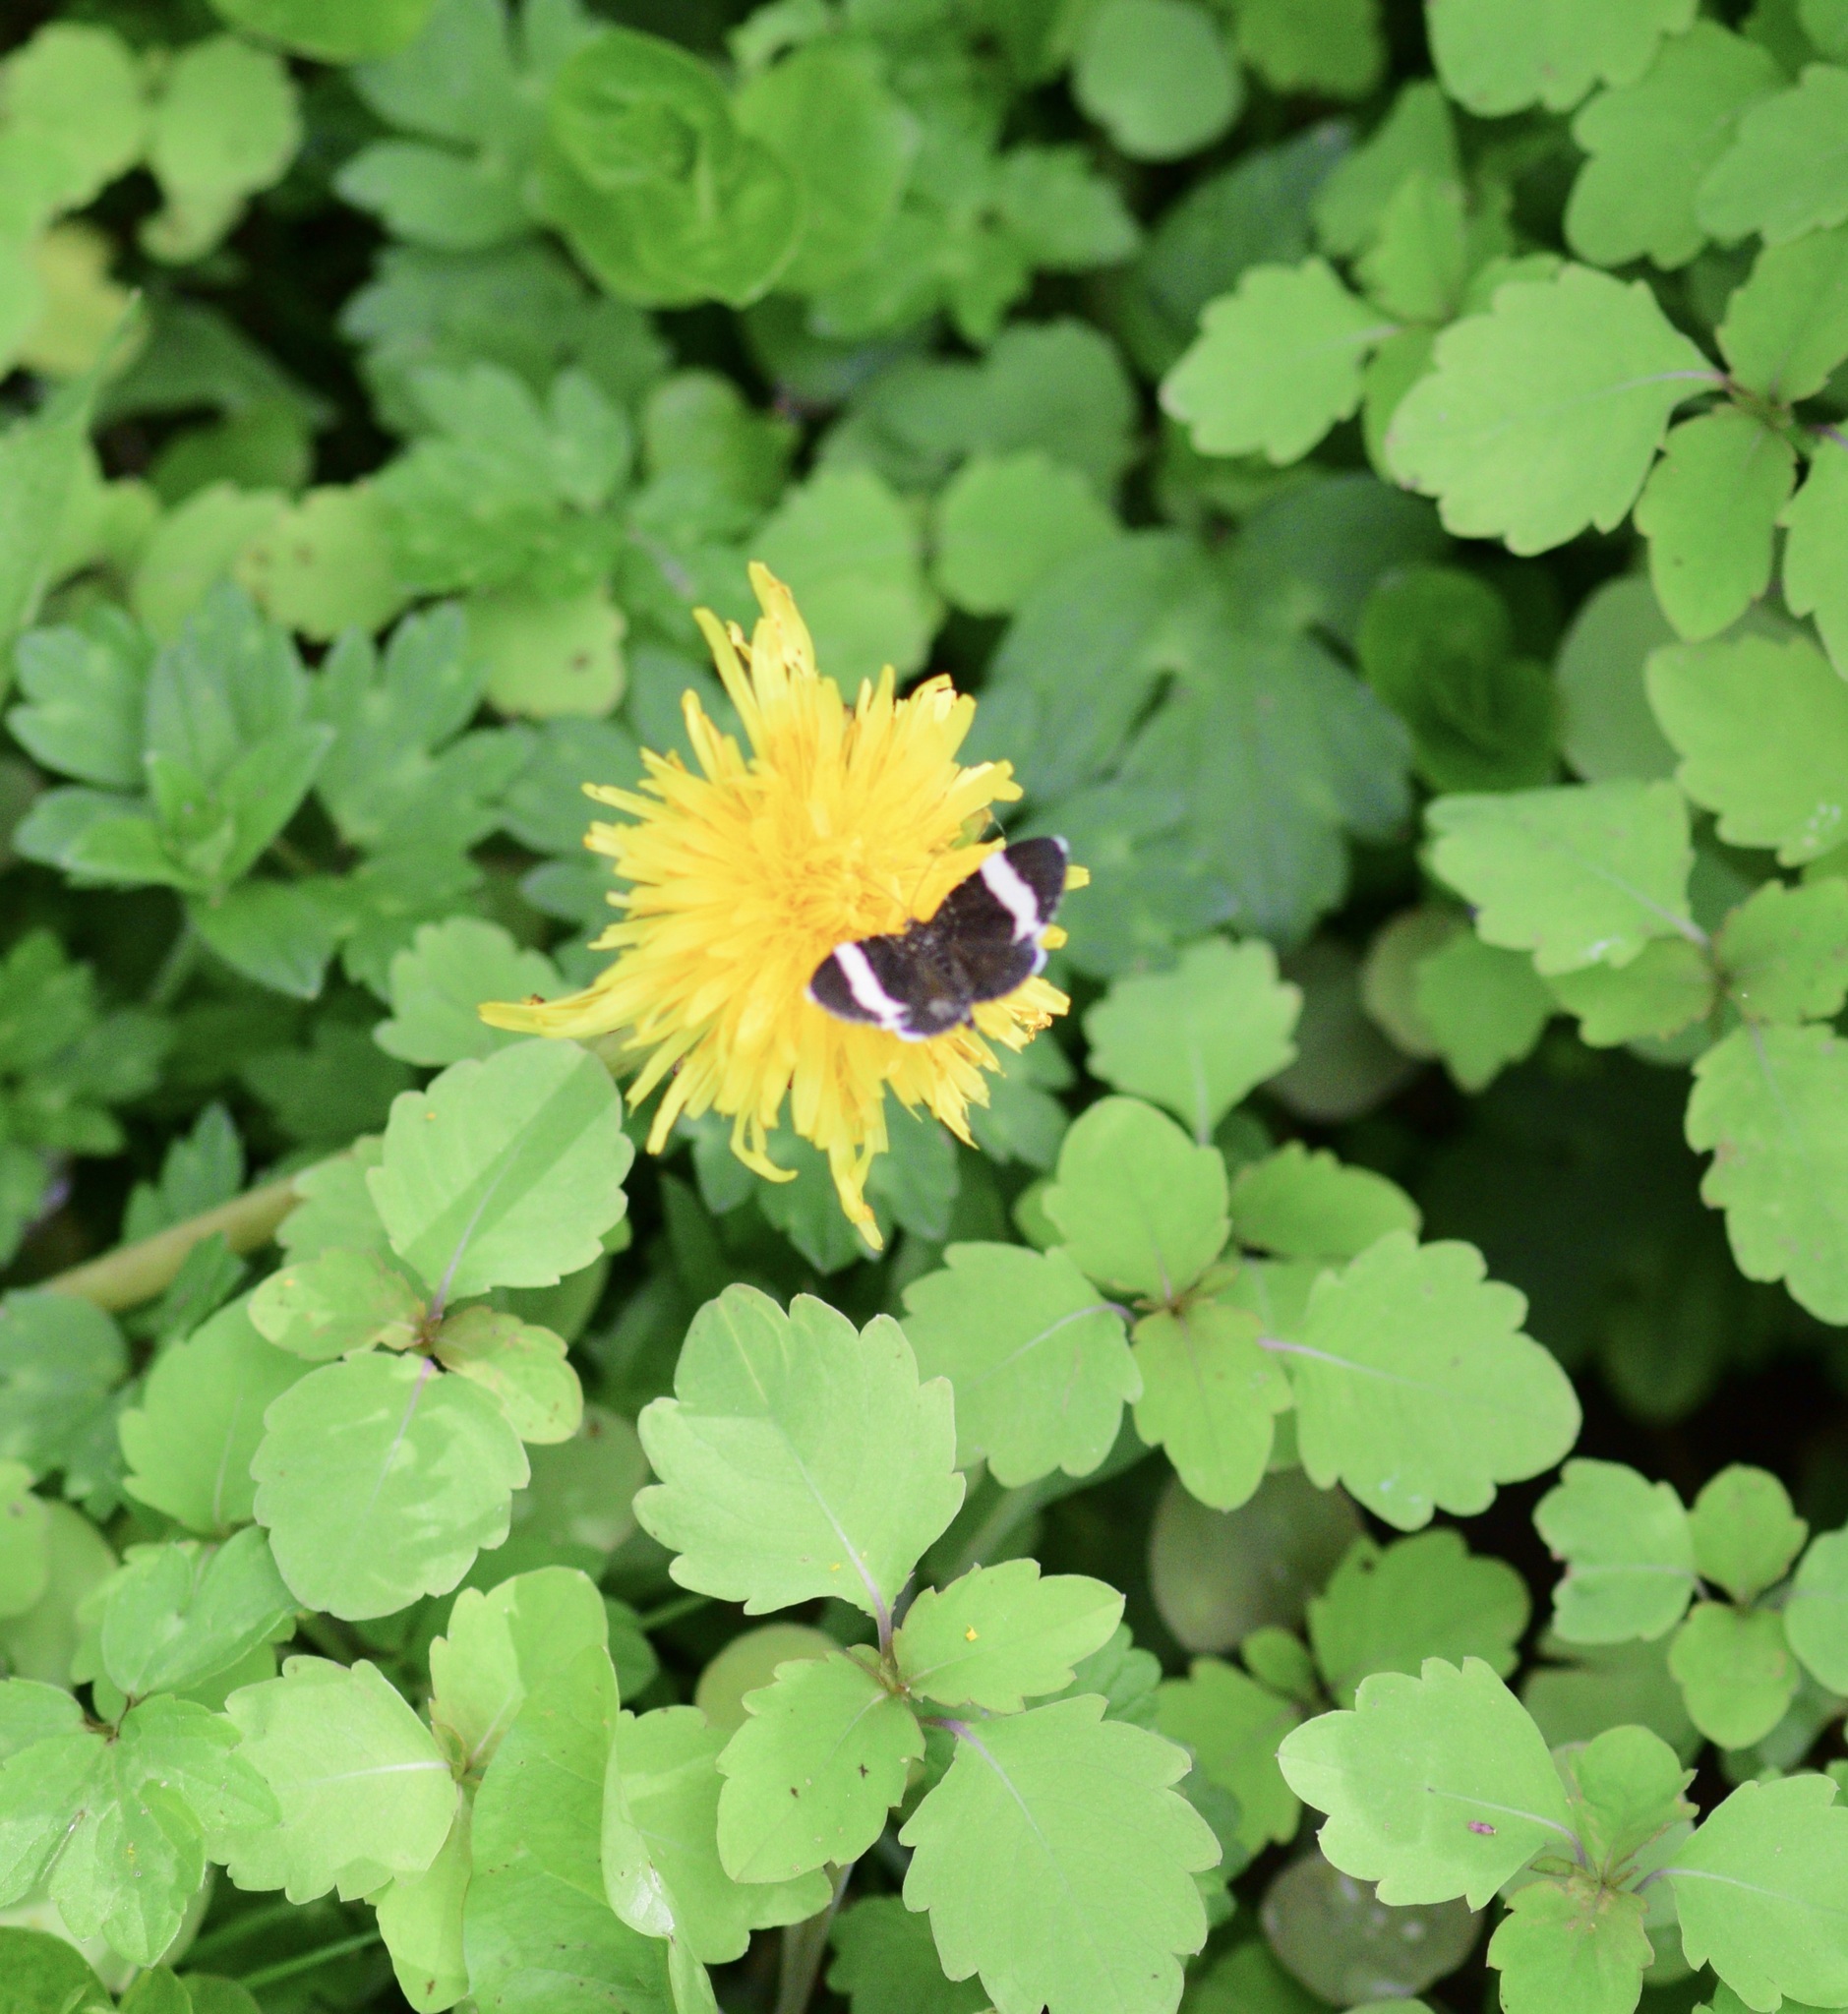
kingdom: Animalia
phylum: Arthropoda
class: Insecta
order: Lepidoptera
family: Geometridae
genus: Trichodezia
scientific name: Trichodezia albovittata
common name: White striped black
